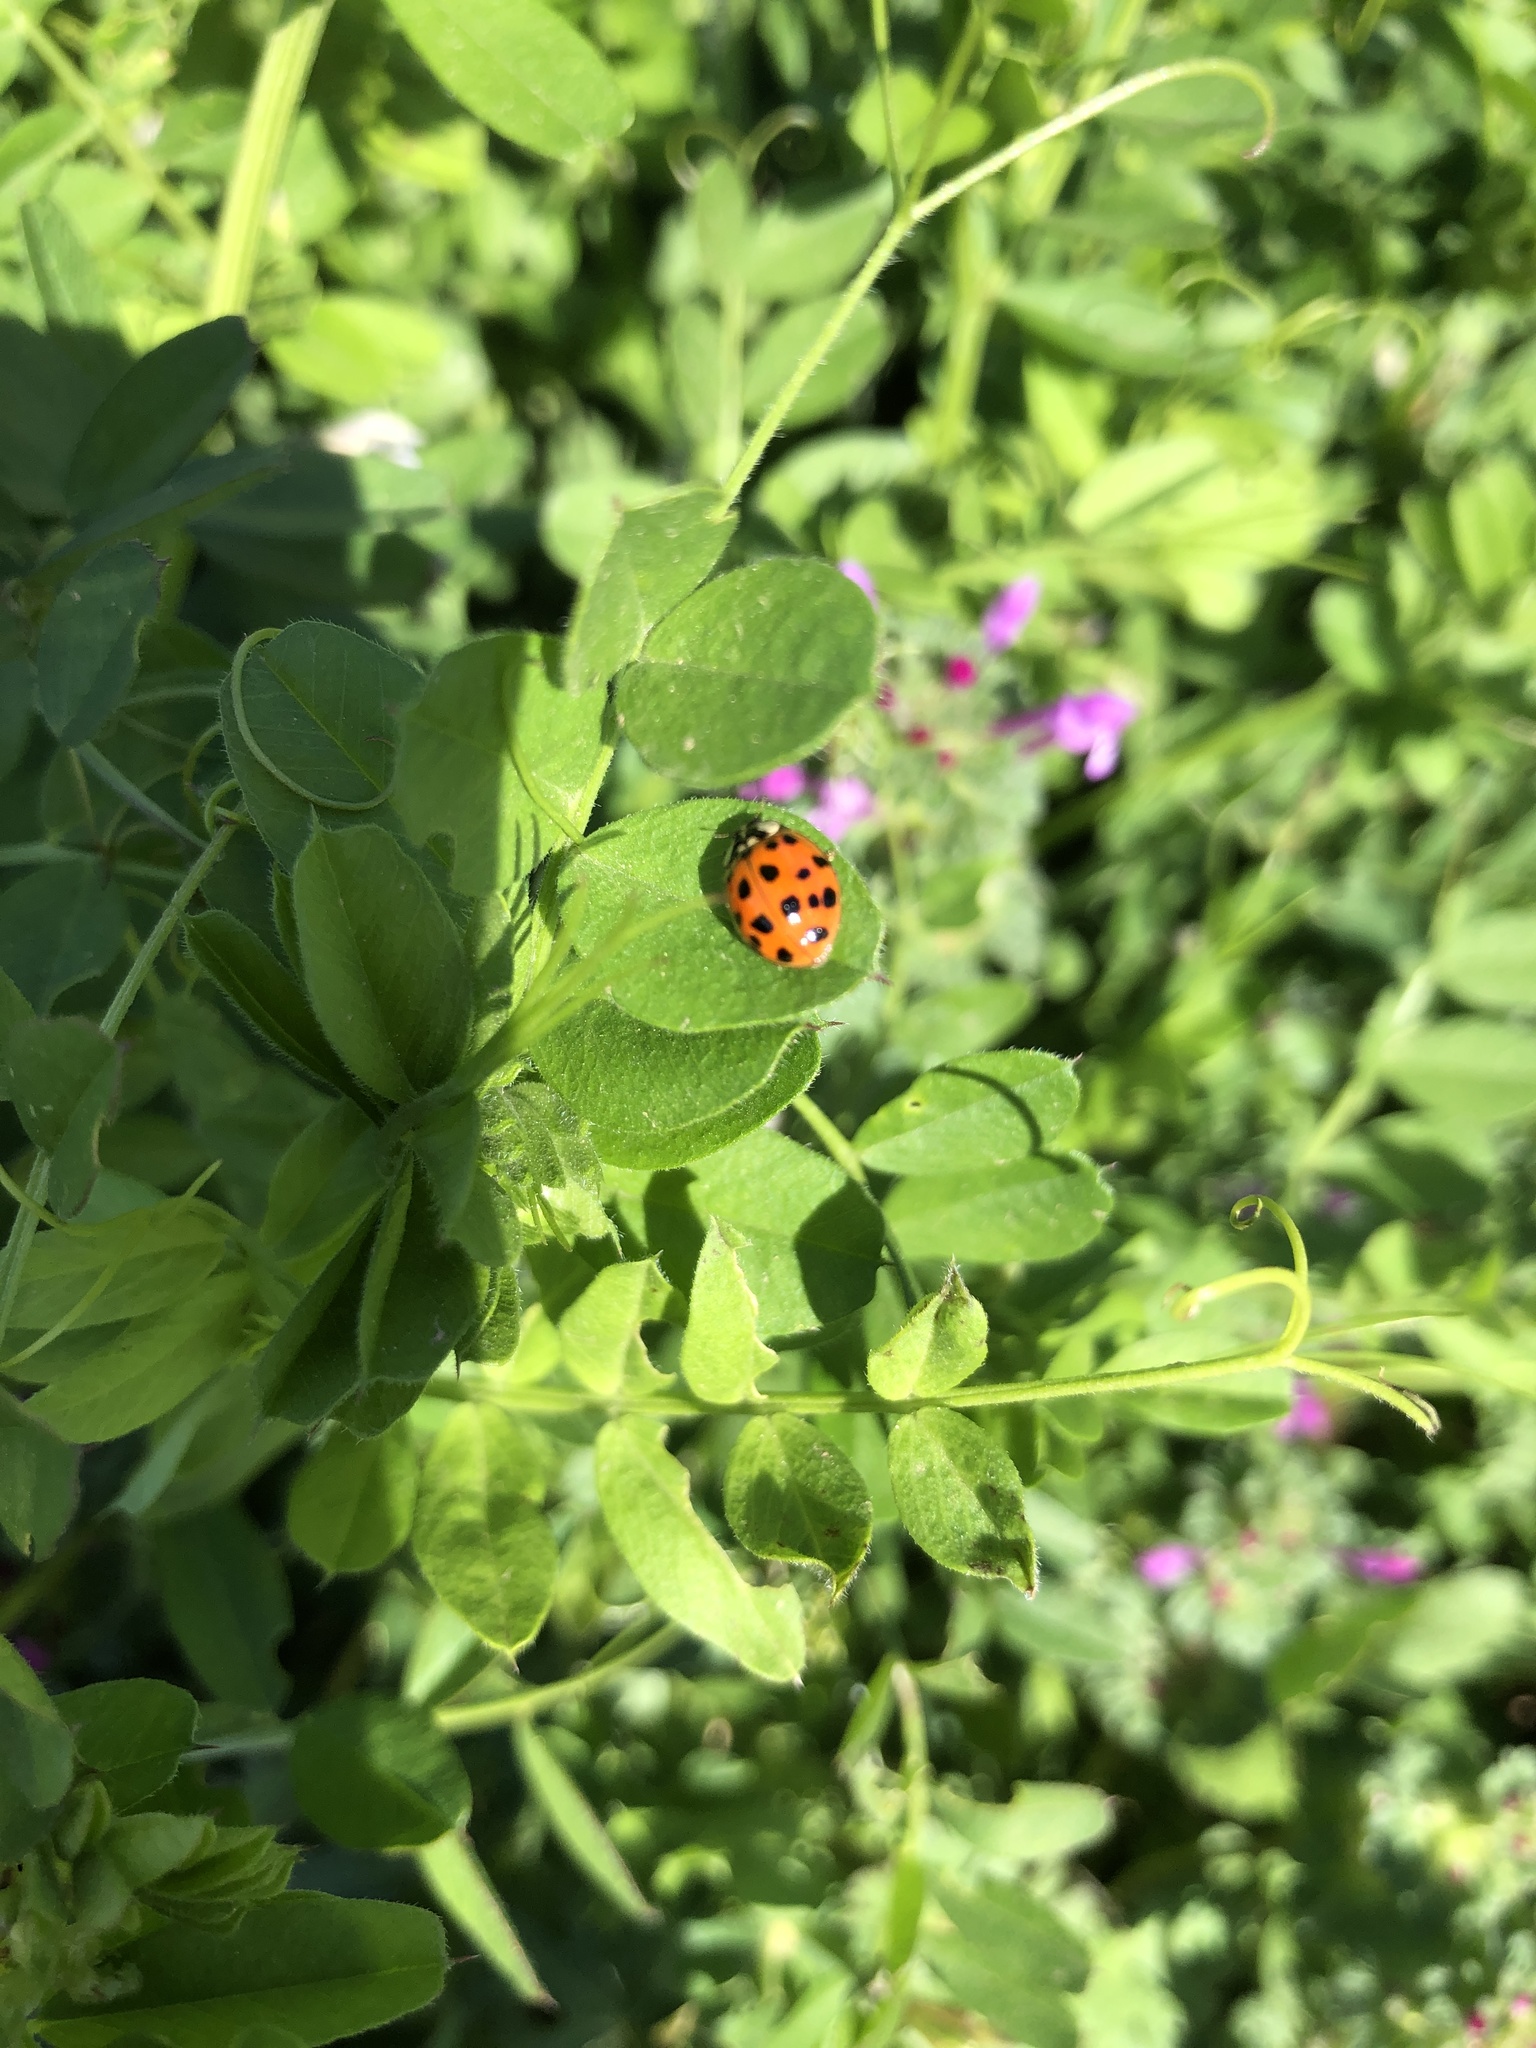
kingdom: Animalia
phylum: Arthropoda
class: Insecta
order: Coleoptera
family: Coccinellidae
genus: Harmonia
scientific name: Harmonia axyridis
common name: Harlequin ladybird
